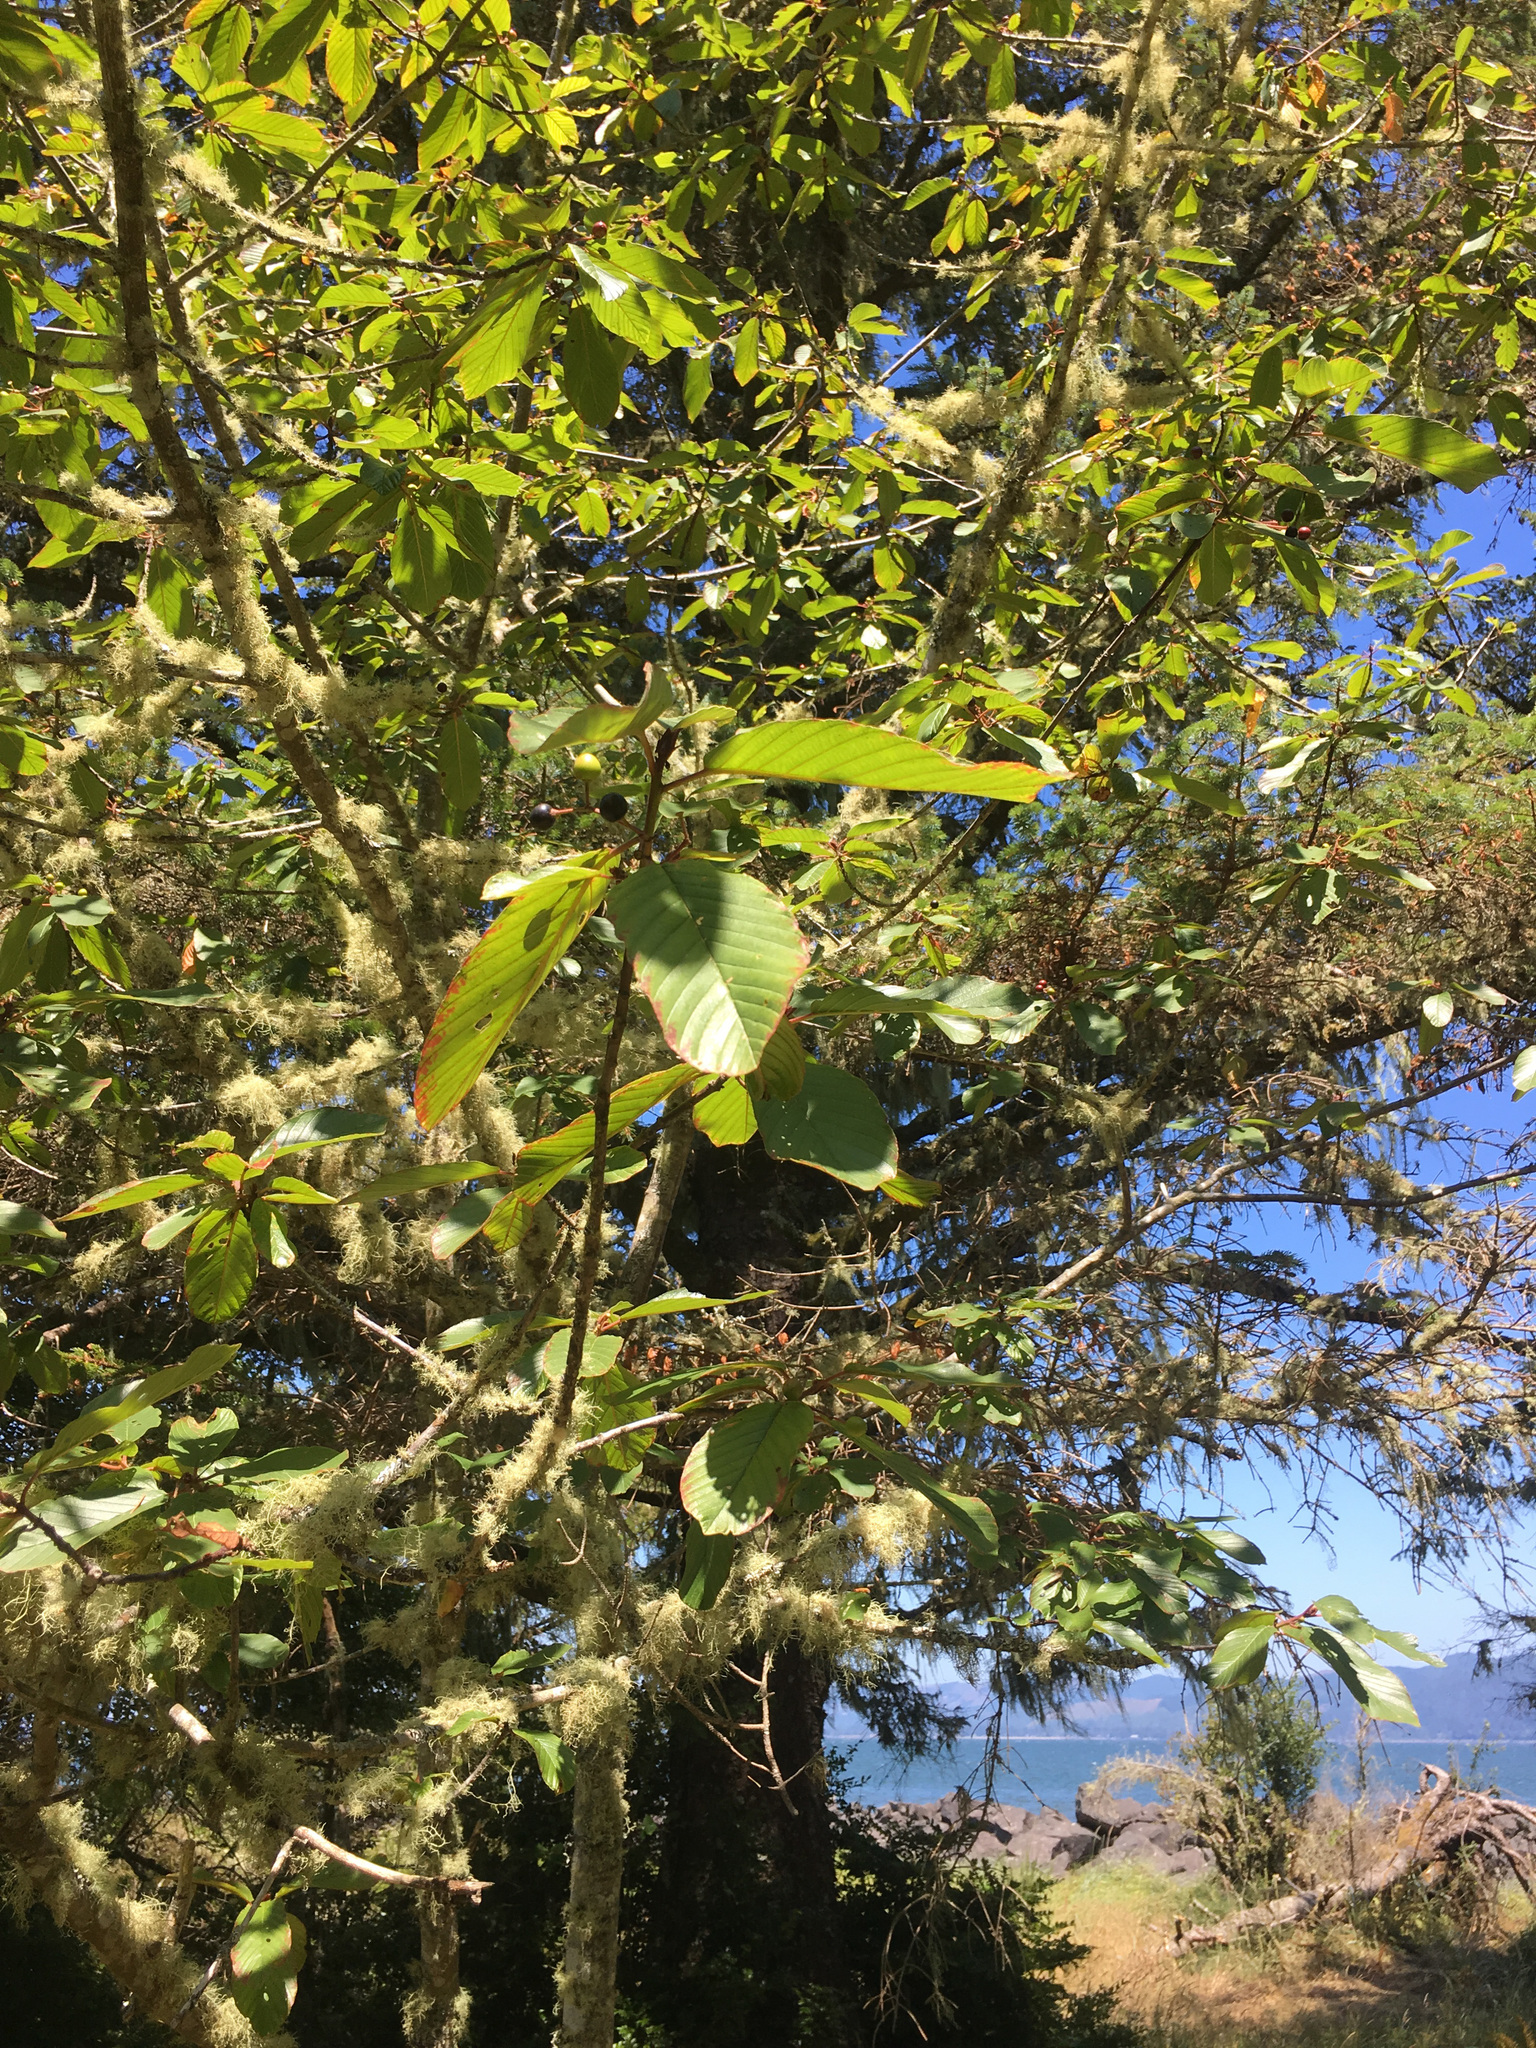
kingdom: Plantae
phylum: Tracheophyta
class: Magnoliopsida
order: Rosales
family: Rhamnaceae
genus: Frangula
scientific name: Frangula purshiana
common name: Cascara buckthorn
